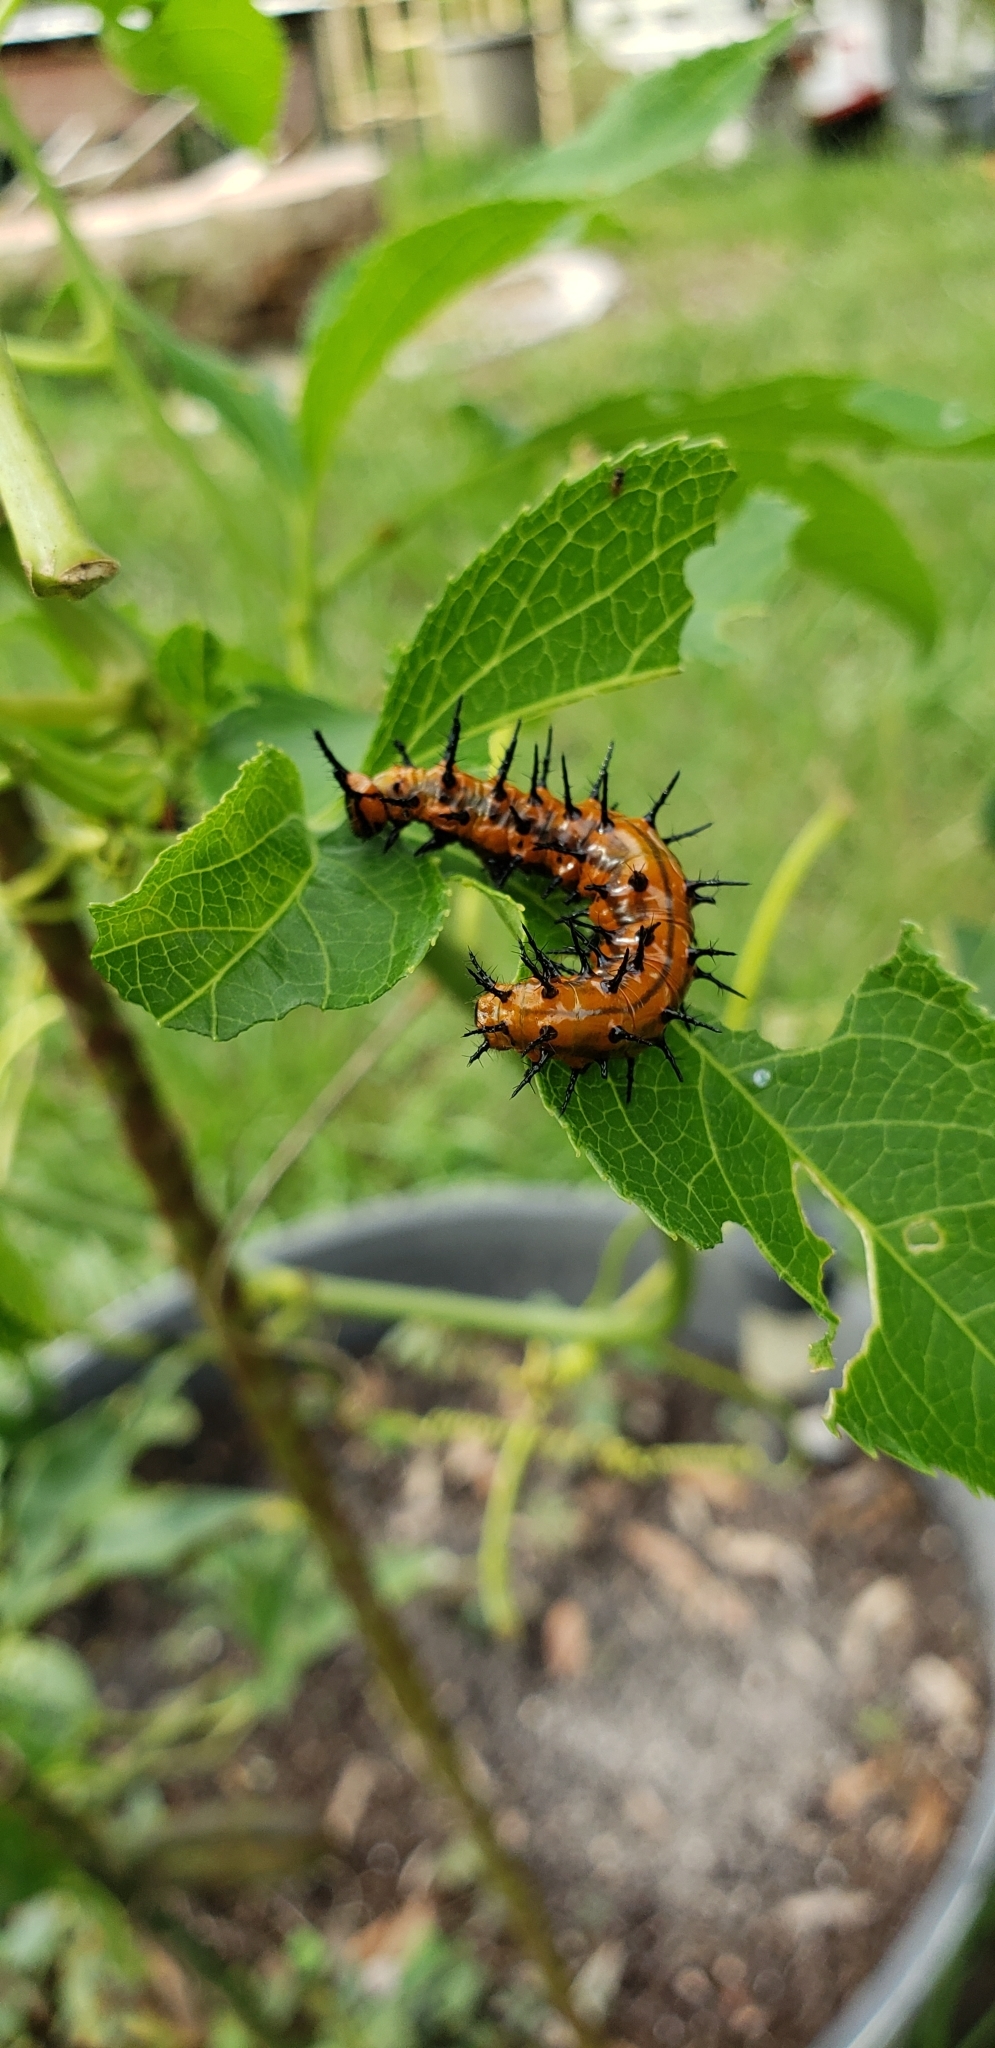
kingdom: Animalia
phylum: Arthropoda
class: Insecta
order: Lepidoptera
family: Nymphalidae
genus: Dione
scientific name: Dione vanillae
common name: Gulf fritillary
